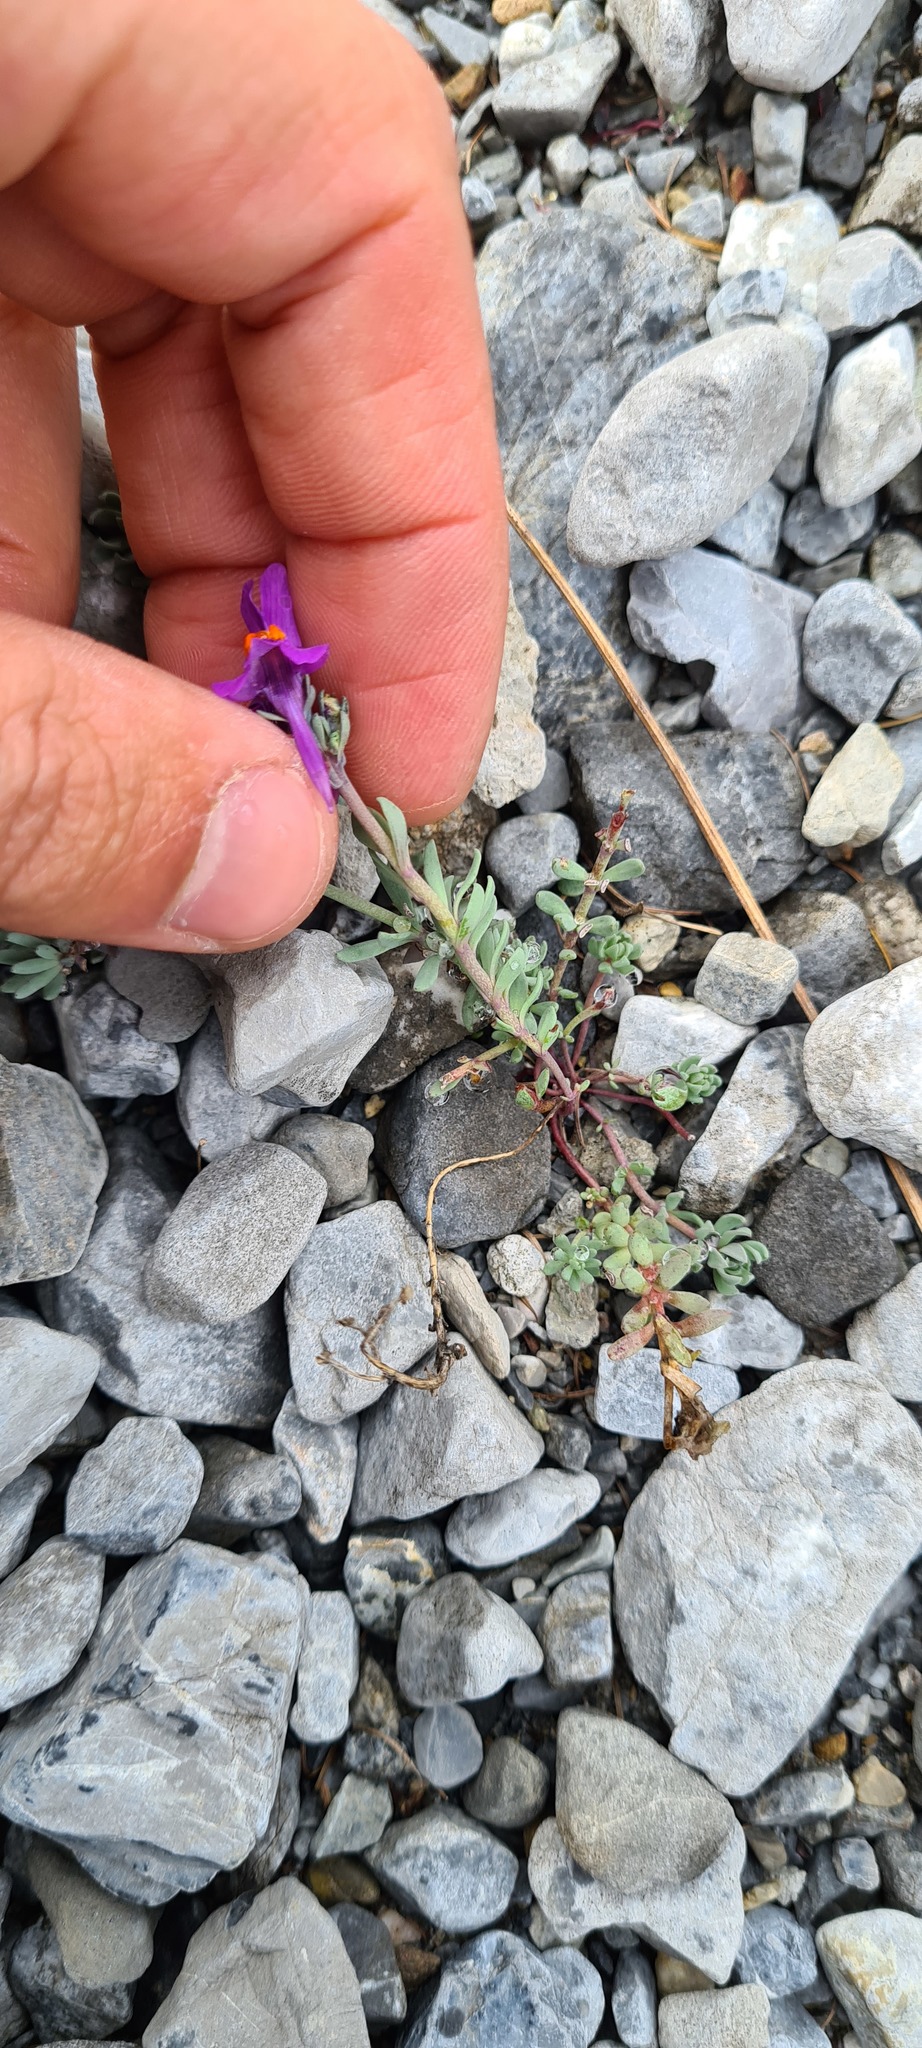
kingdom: Plantae
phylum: Tracheophyta
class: Magnoliopsida
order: Lamiales
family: Plantaginaceae
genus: Linaria
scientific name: Linaria alpina
